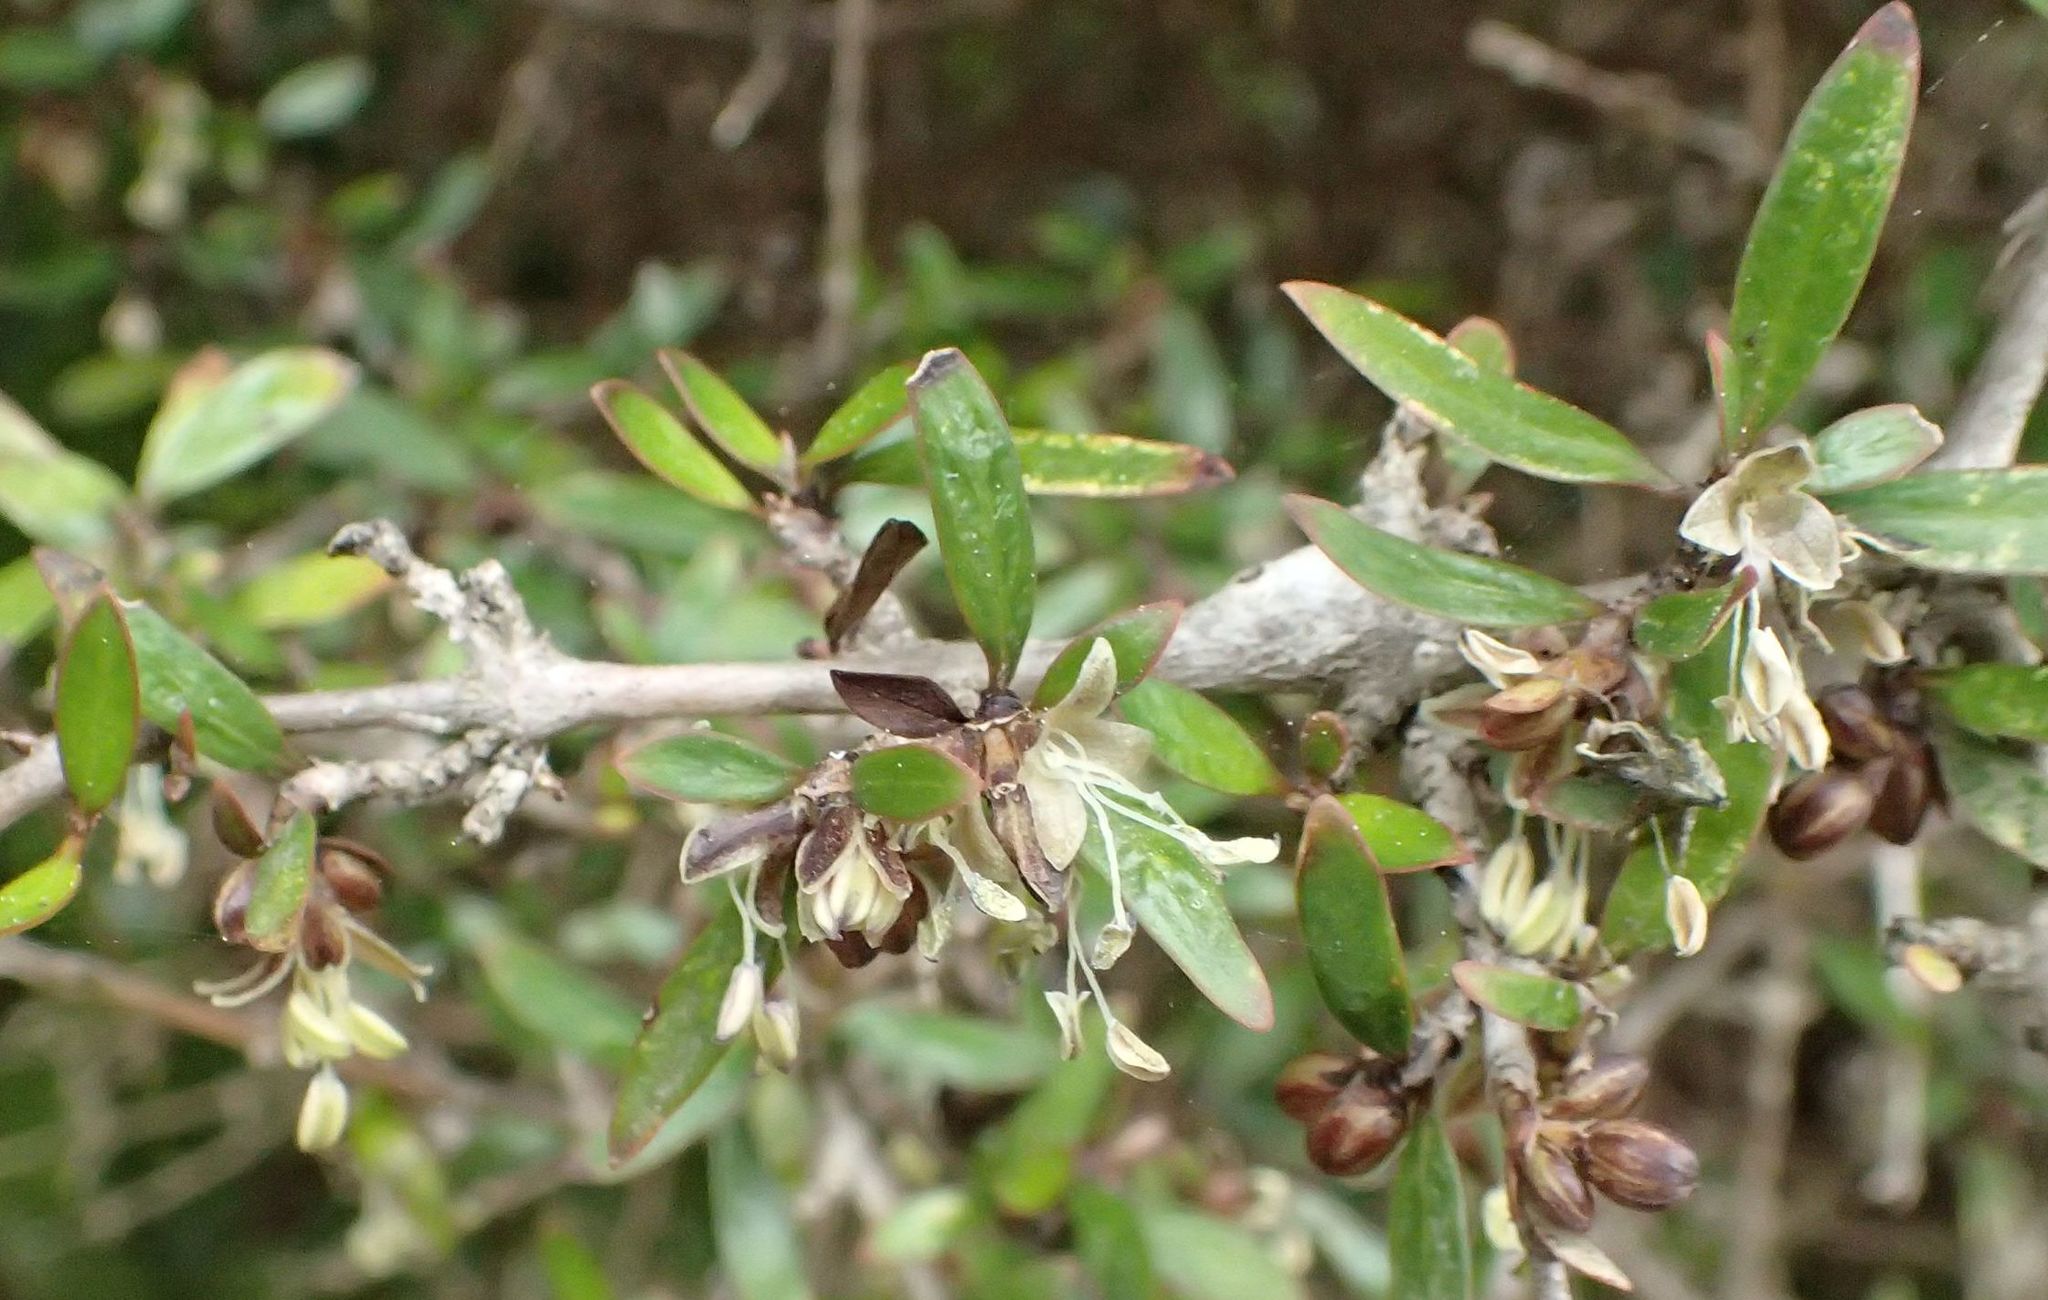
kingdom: Plantae
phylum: Tracheophyta
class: Magnoliopsida
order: Gentianales
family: Rubiaceae
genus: Coprosma
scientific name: Coprosma propinqua
